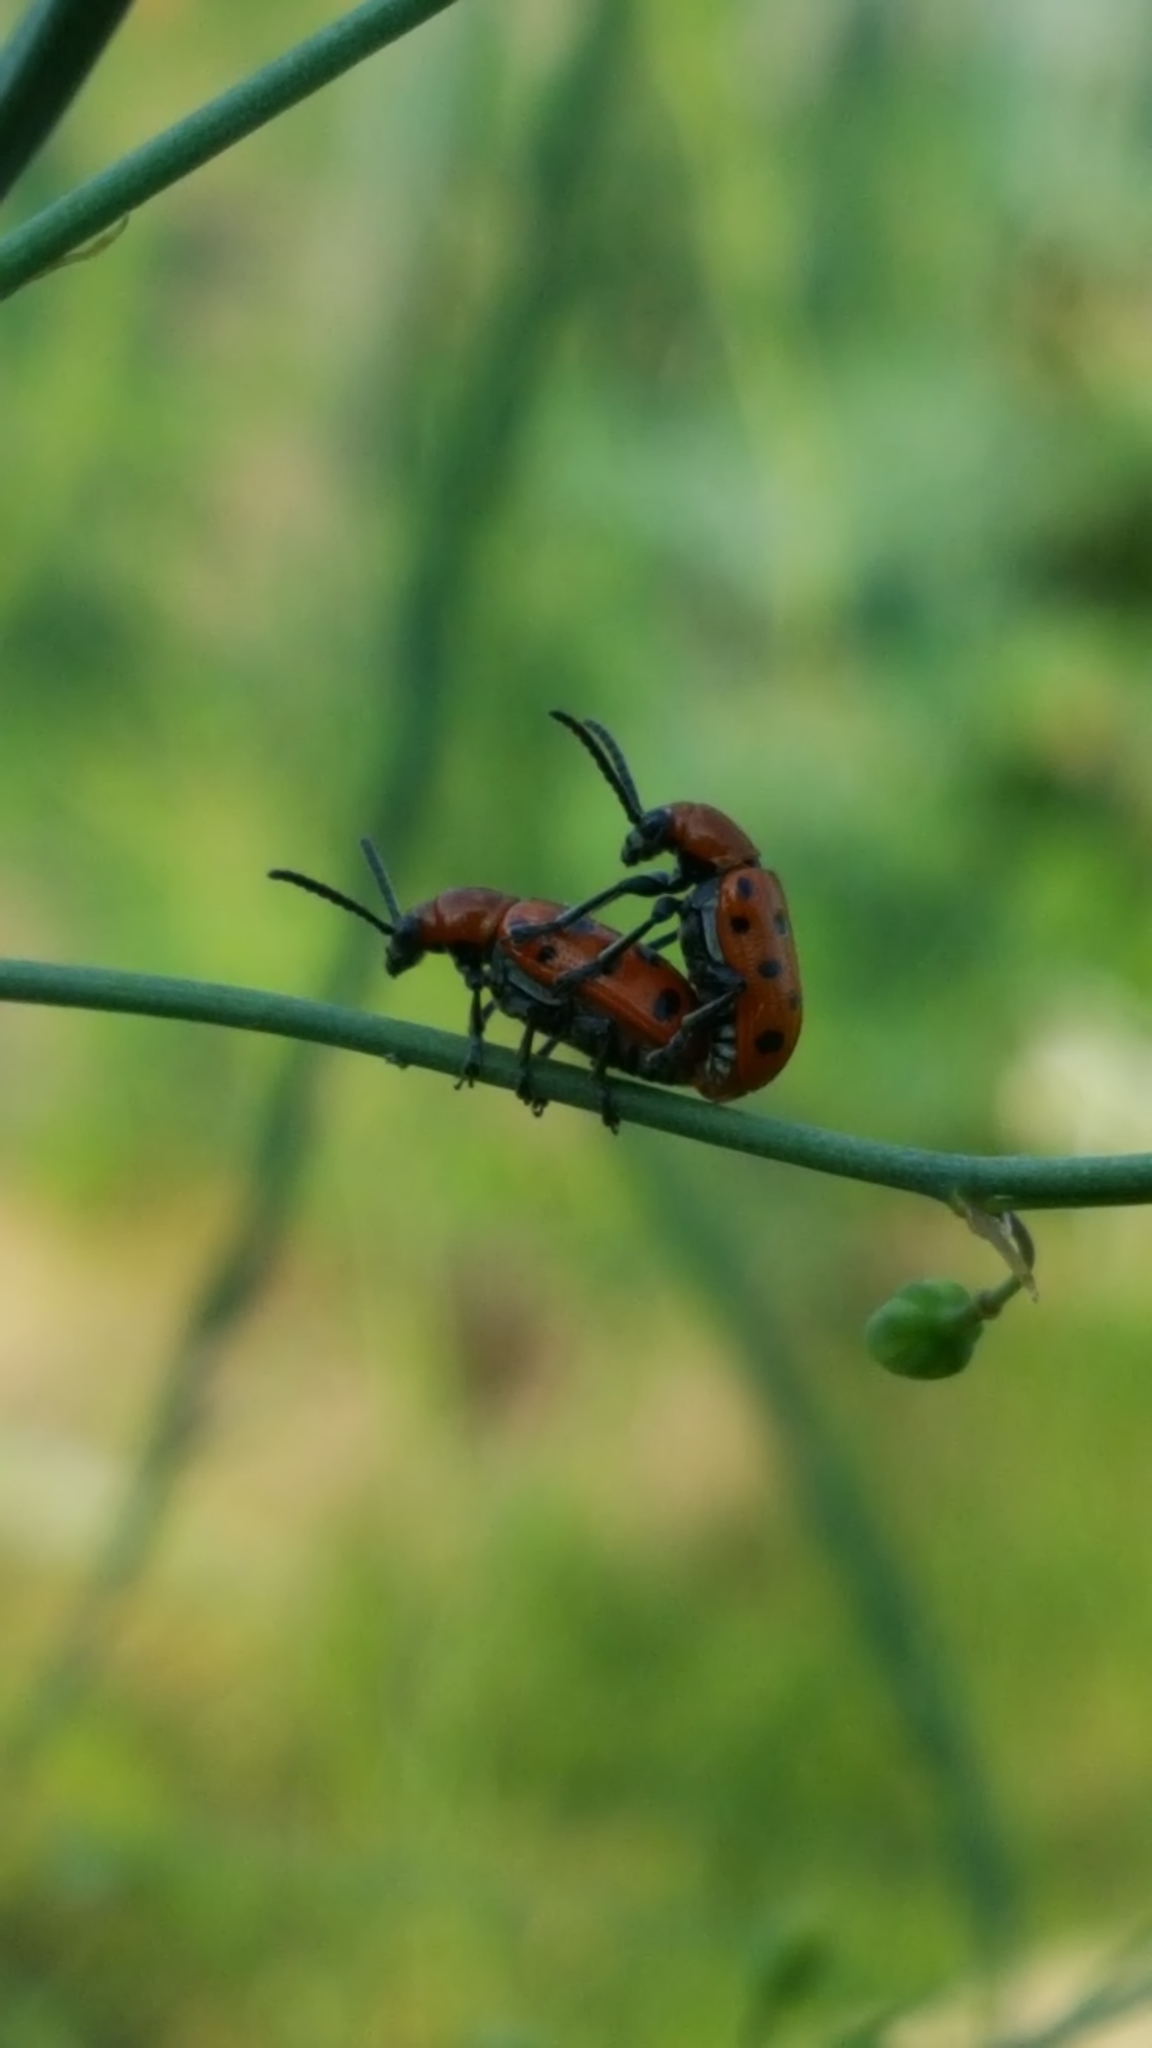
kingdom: Animalia
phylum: Arthropoda
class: Insecta
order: Coleoptera
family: Chrysomelidae
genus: Crioceris
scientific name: Crioceris duodecimpunctata
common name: Twelve-spotted asparagus beetle
